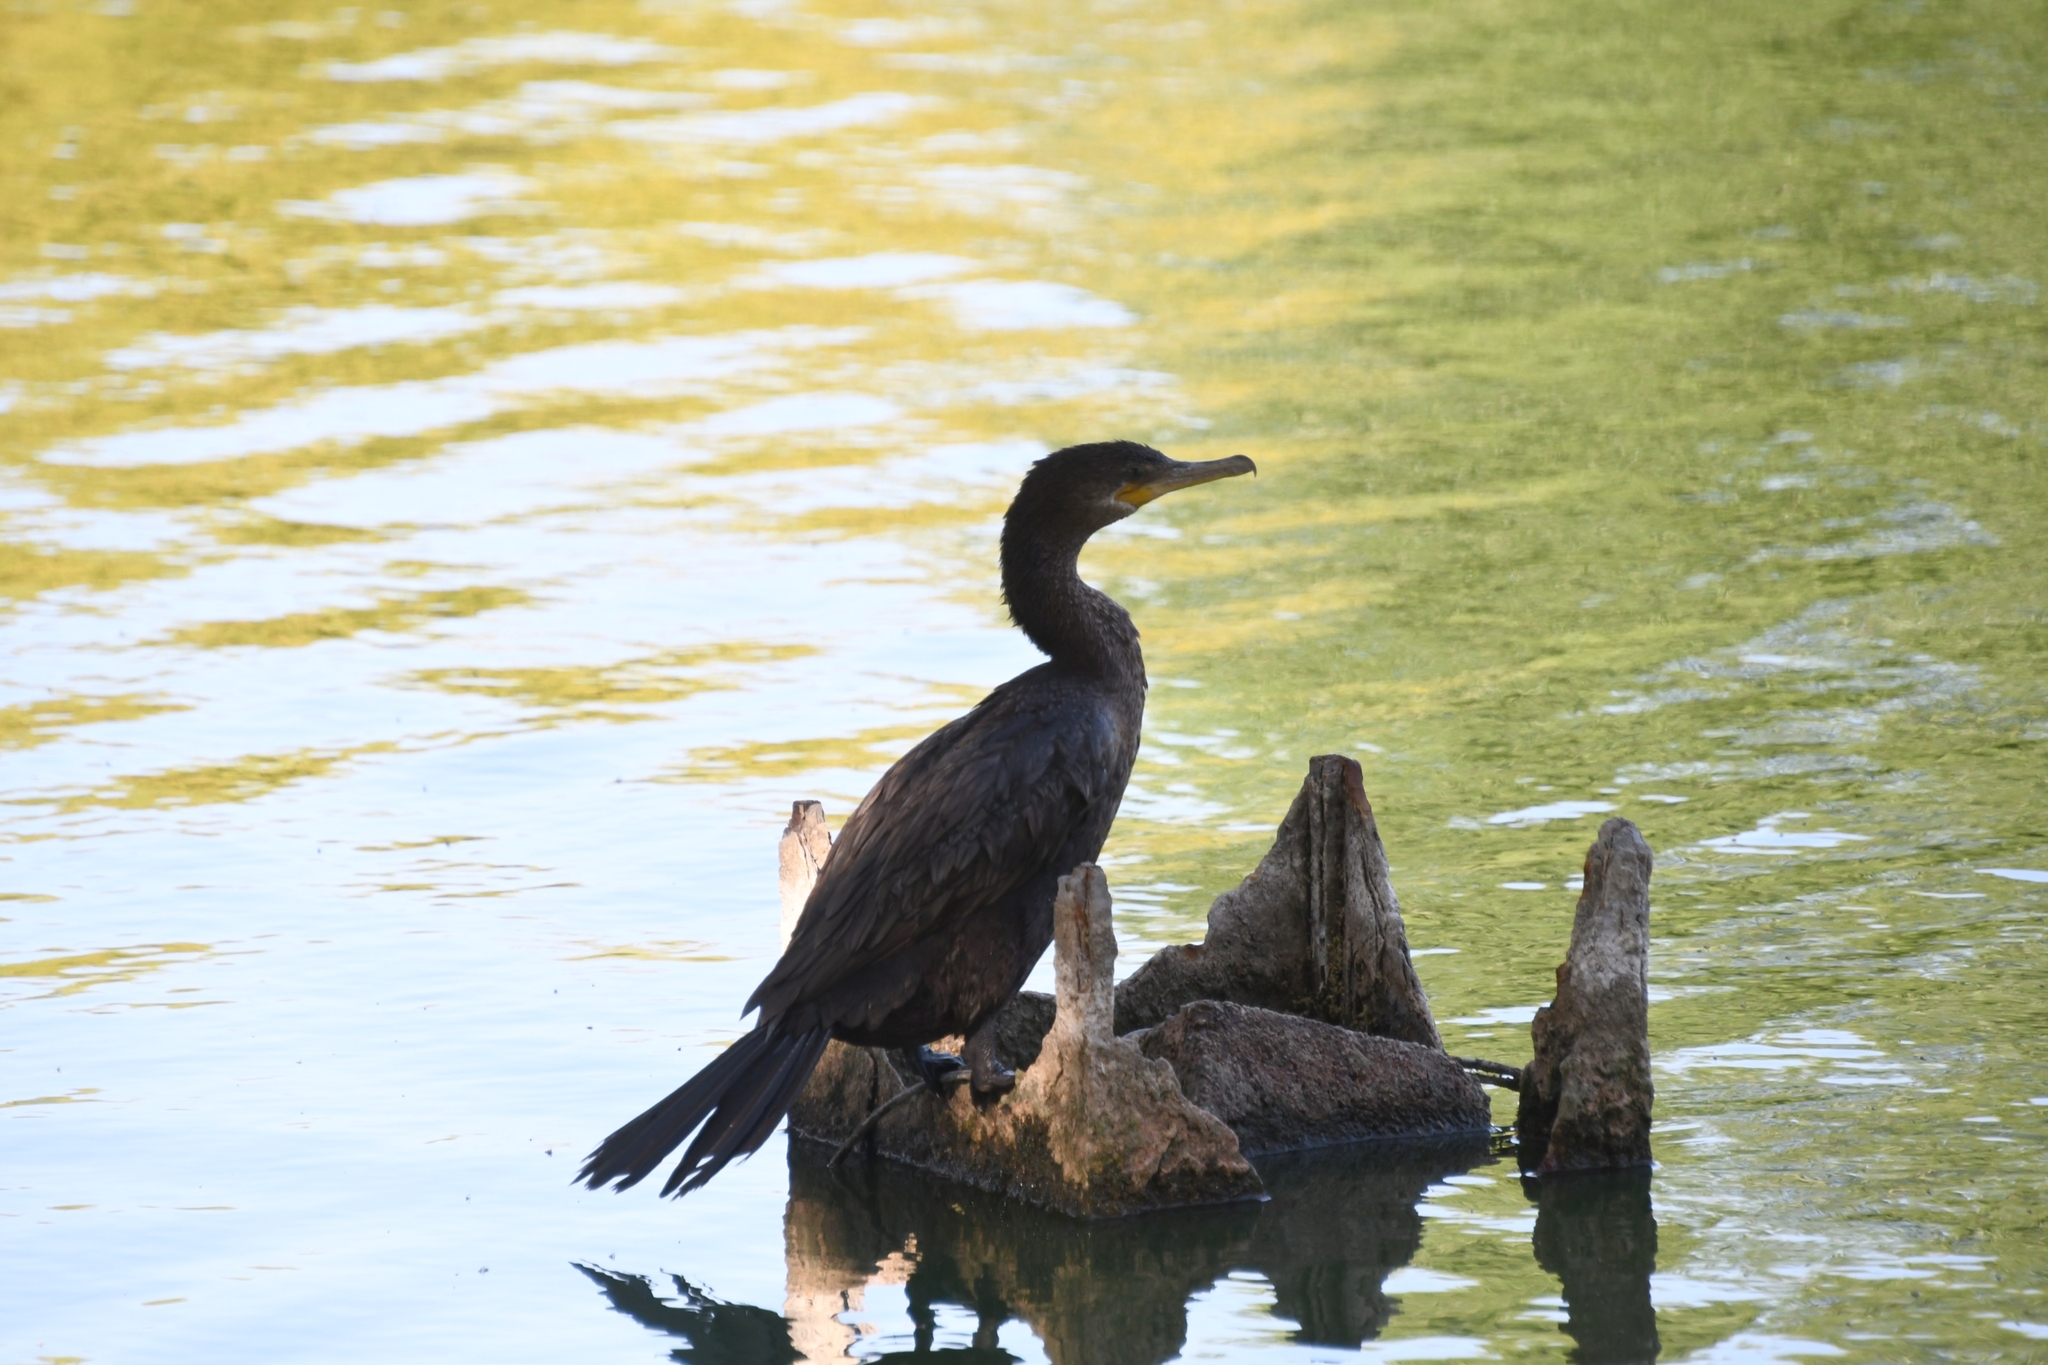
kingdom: Animalia
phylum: Chordata
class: Aves
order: Suliformes
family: Phalacrocoracidae
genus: Phalacrocorax
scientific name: Phalacrocorax brasilianus
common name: Neotropic cormorant
